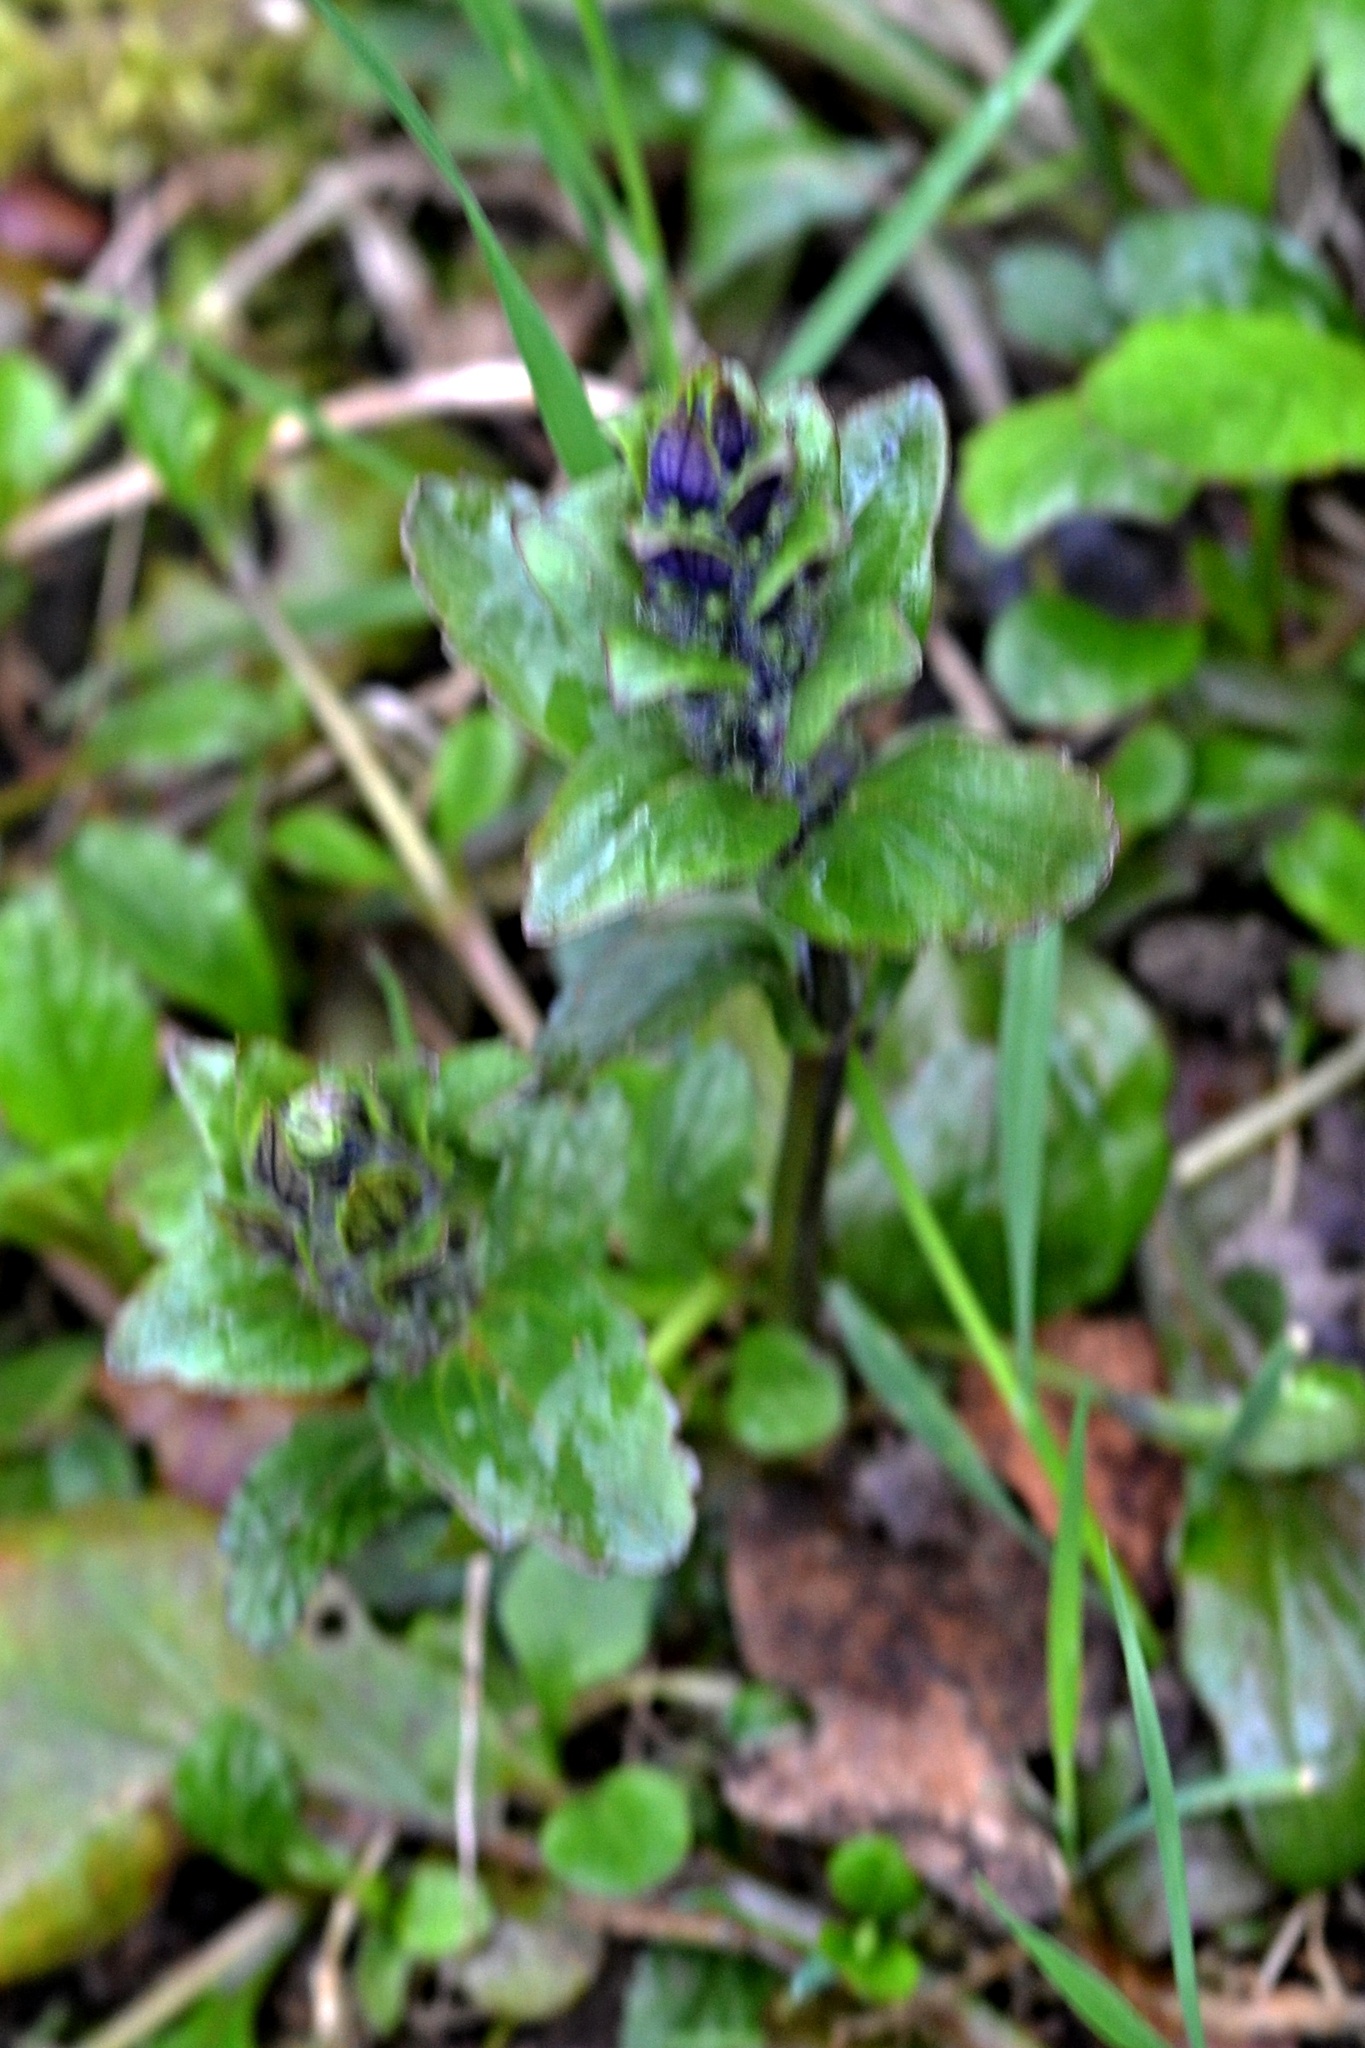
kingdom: Plantae
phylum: Tracheophyta
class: Magnoliopsida
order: Lamiales
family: Lamiaceae
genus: Ajuga
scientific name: Ajuga reptans
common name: Bugle
